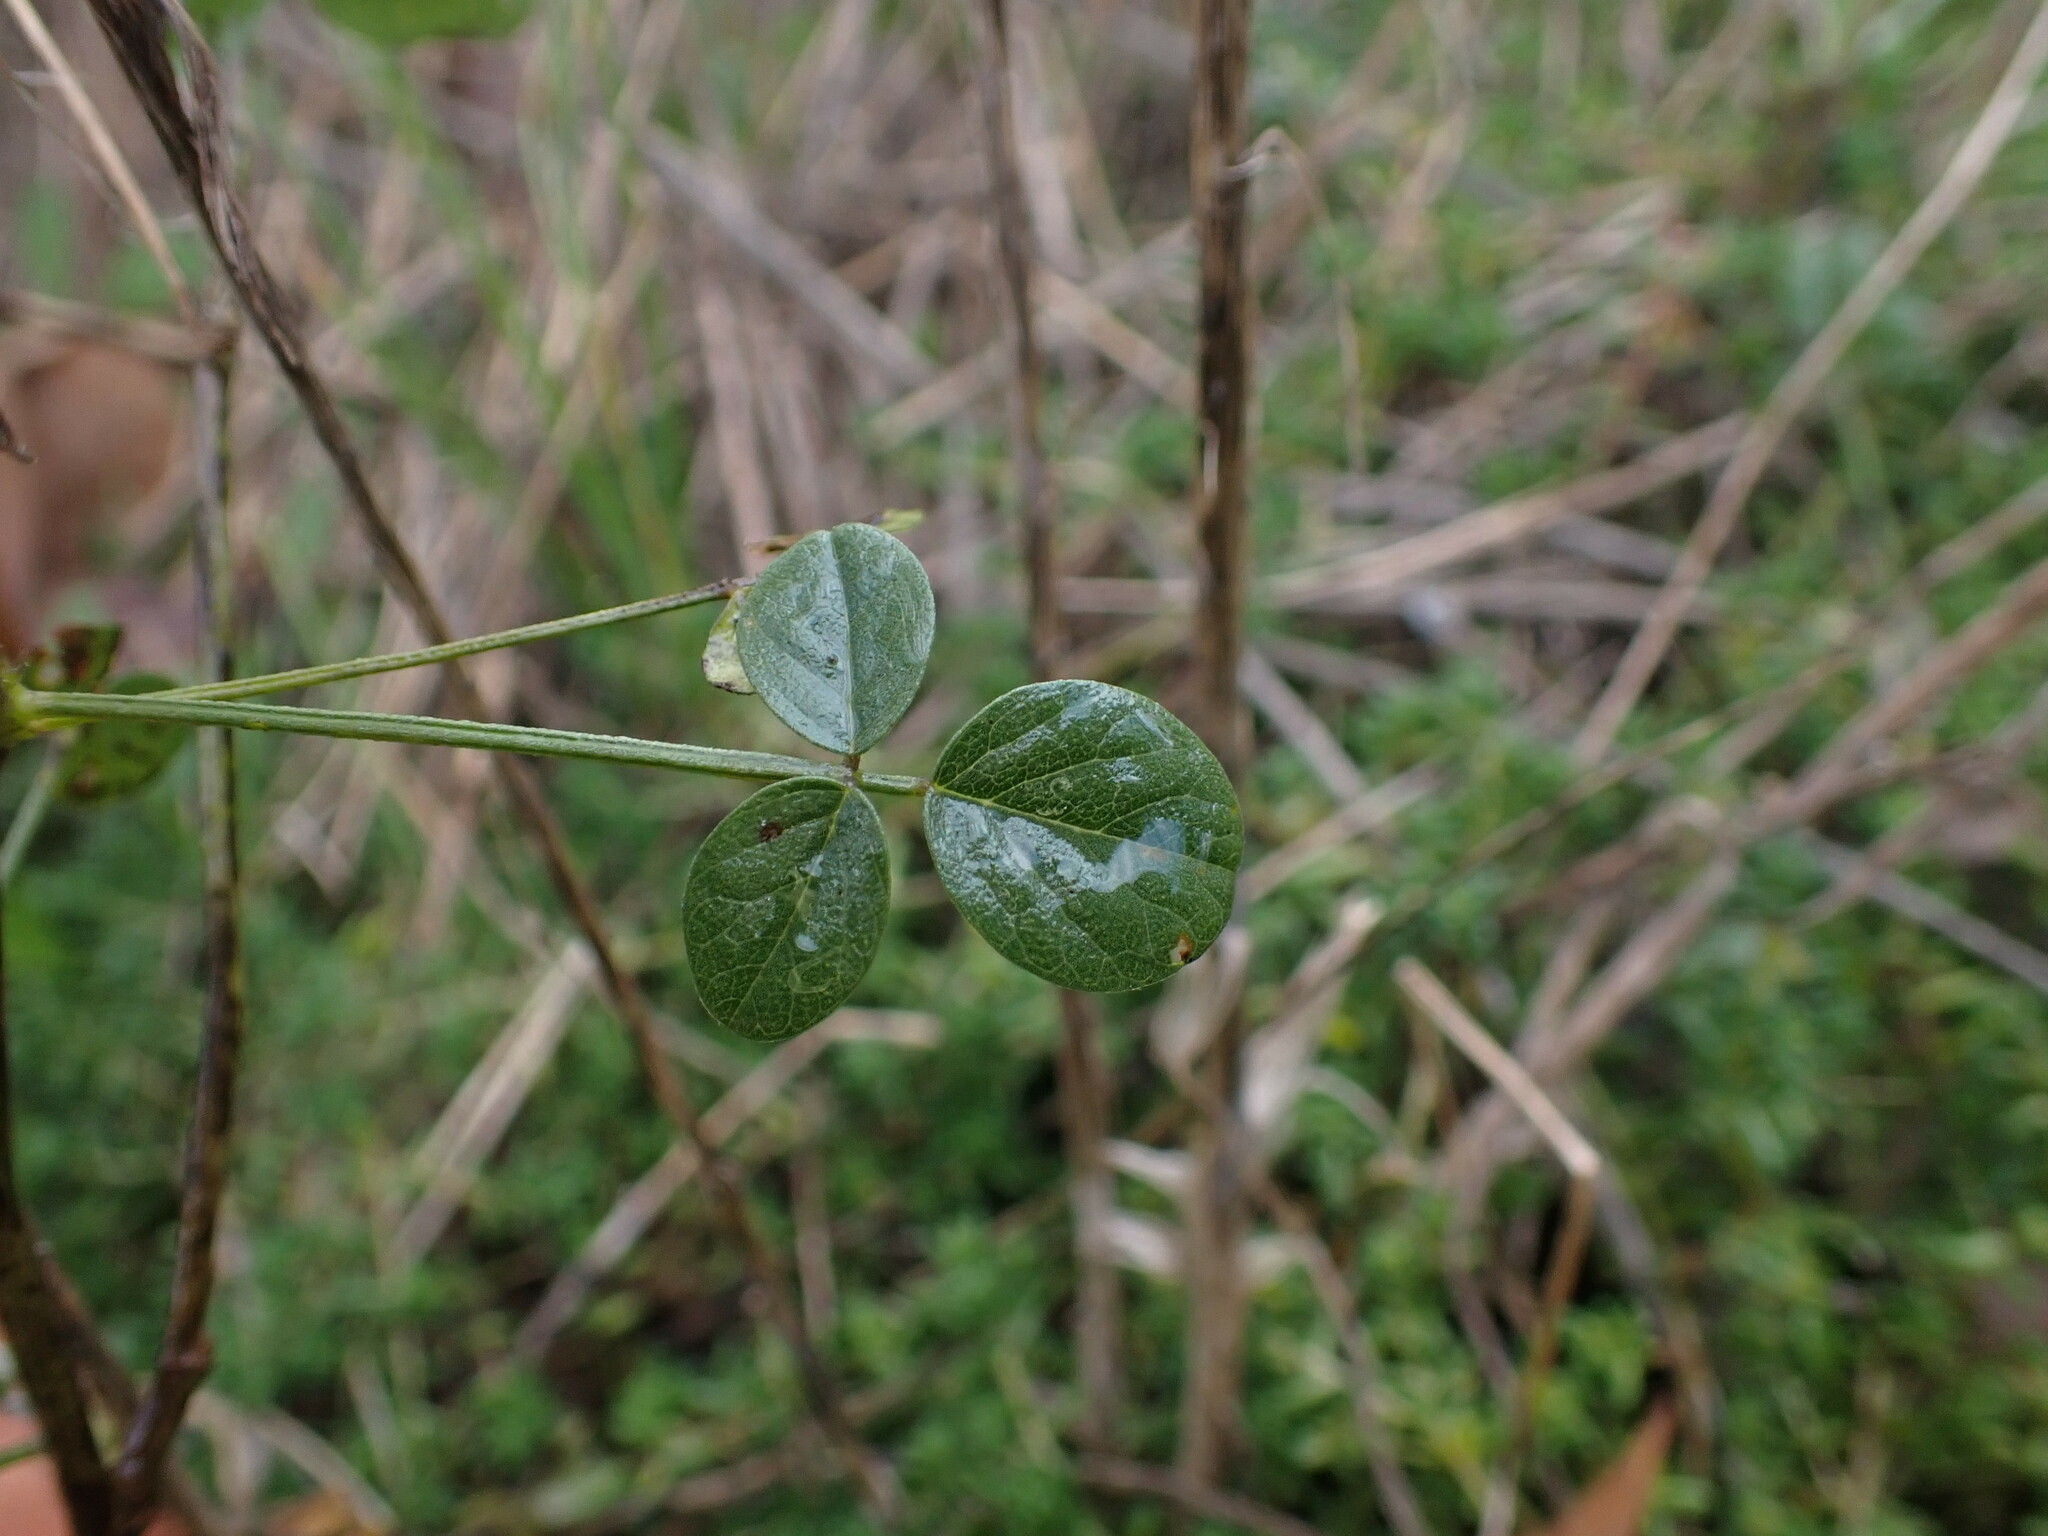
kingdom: Plantae
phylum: Tracheophyta
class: Magnoliopsida
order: Fabales
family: Fabaceae
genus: Bituminaria
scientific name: Bituminaria bituminosa
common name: Arabian pea
